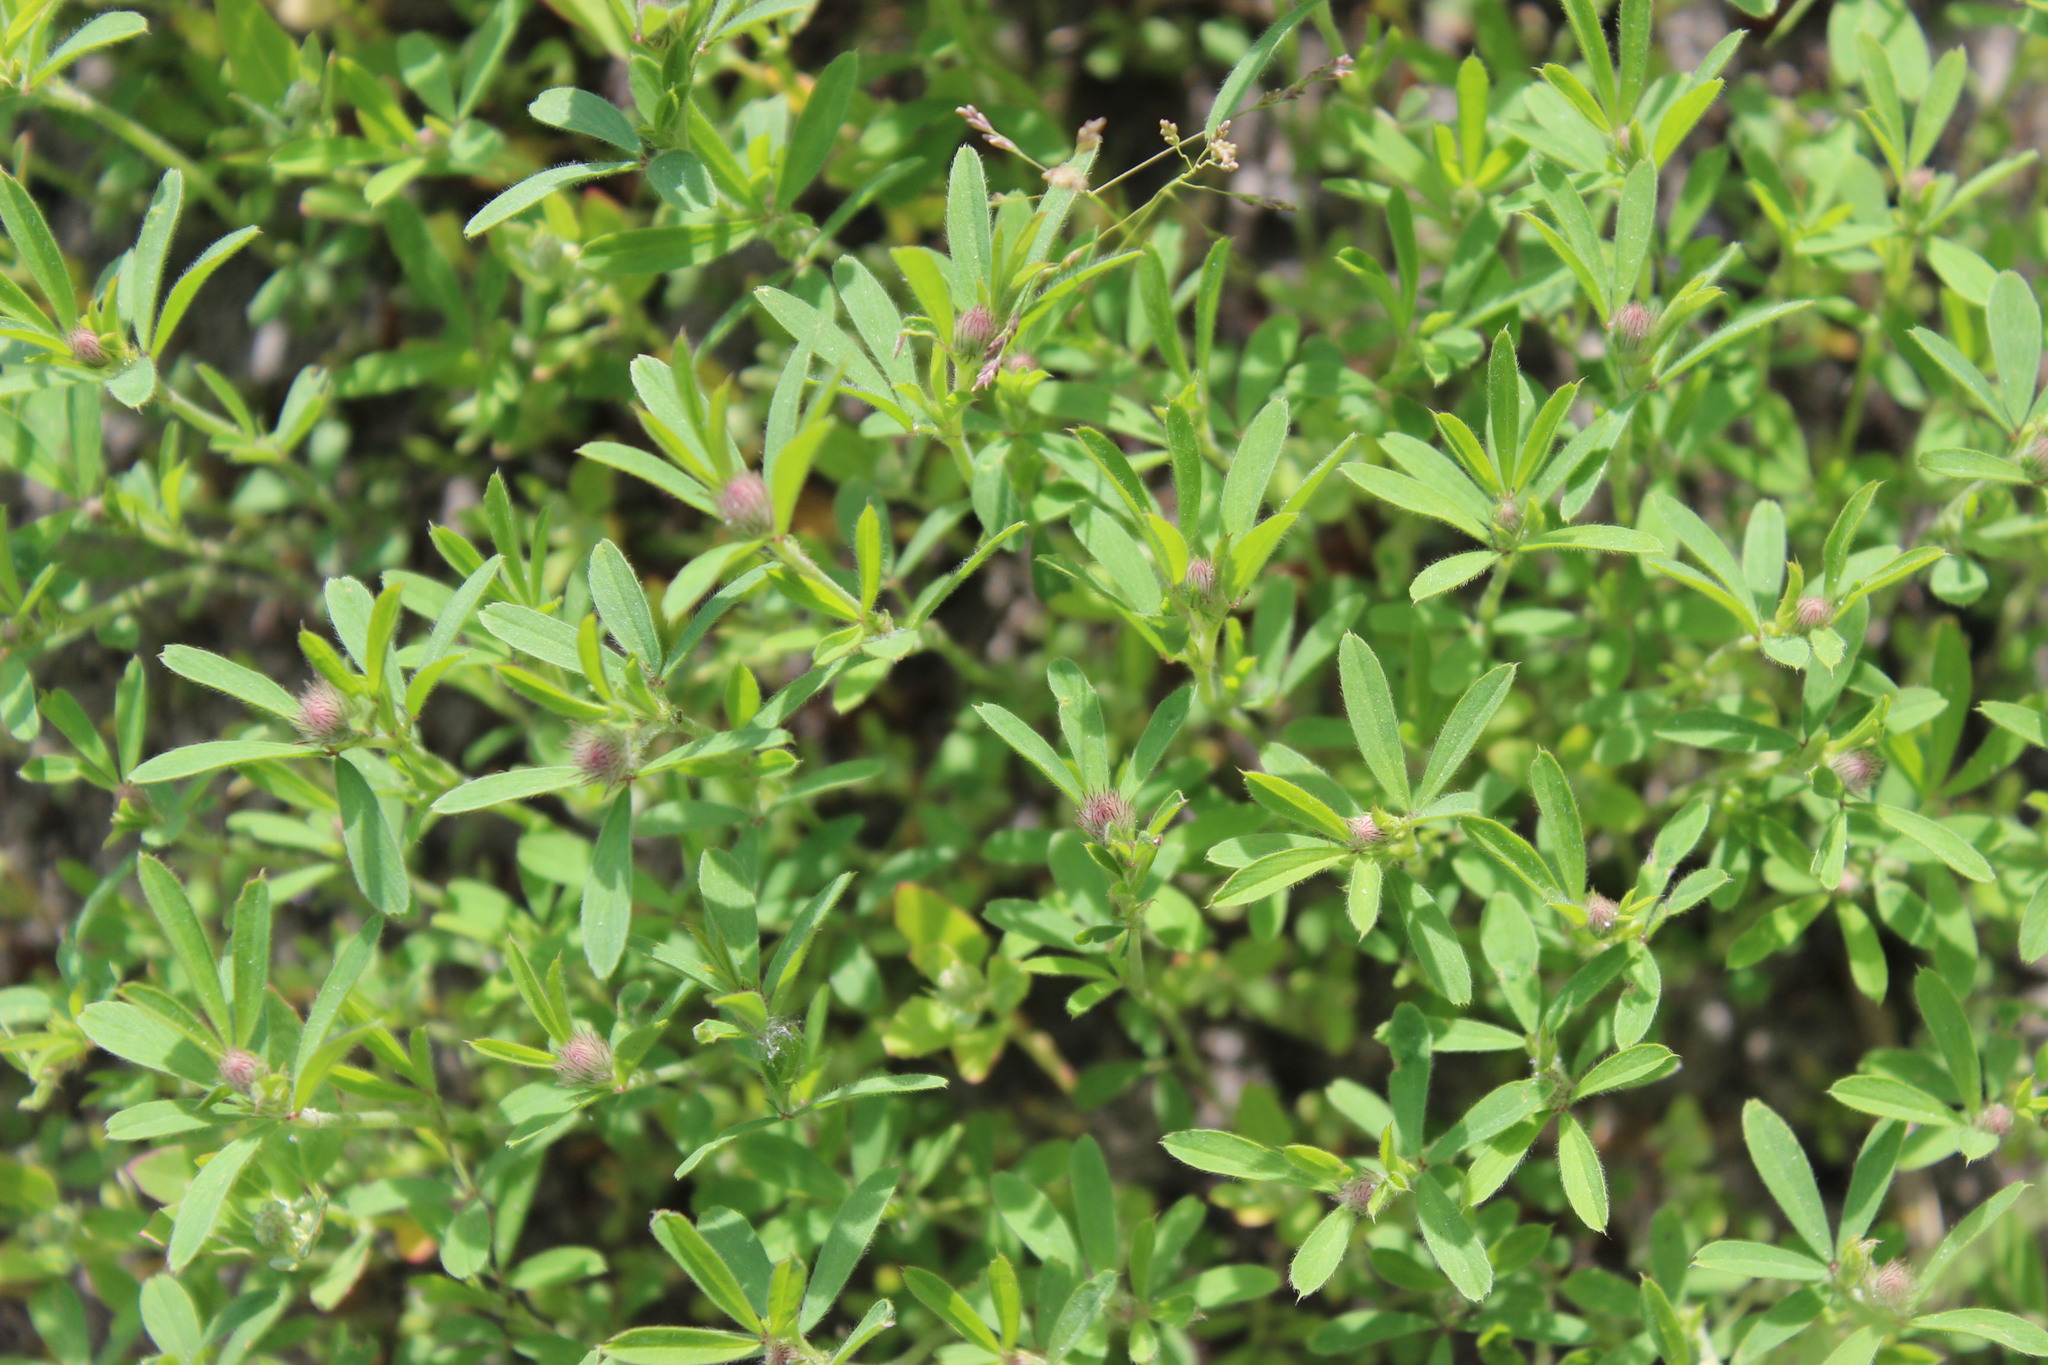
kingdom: Plantae
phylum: Tracheophyta
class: Magnoliopsida
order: Fabales
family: Fabaceae
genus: Trifolium
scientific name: Trifolium arvense
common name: Hare's-foot clover
